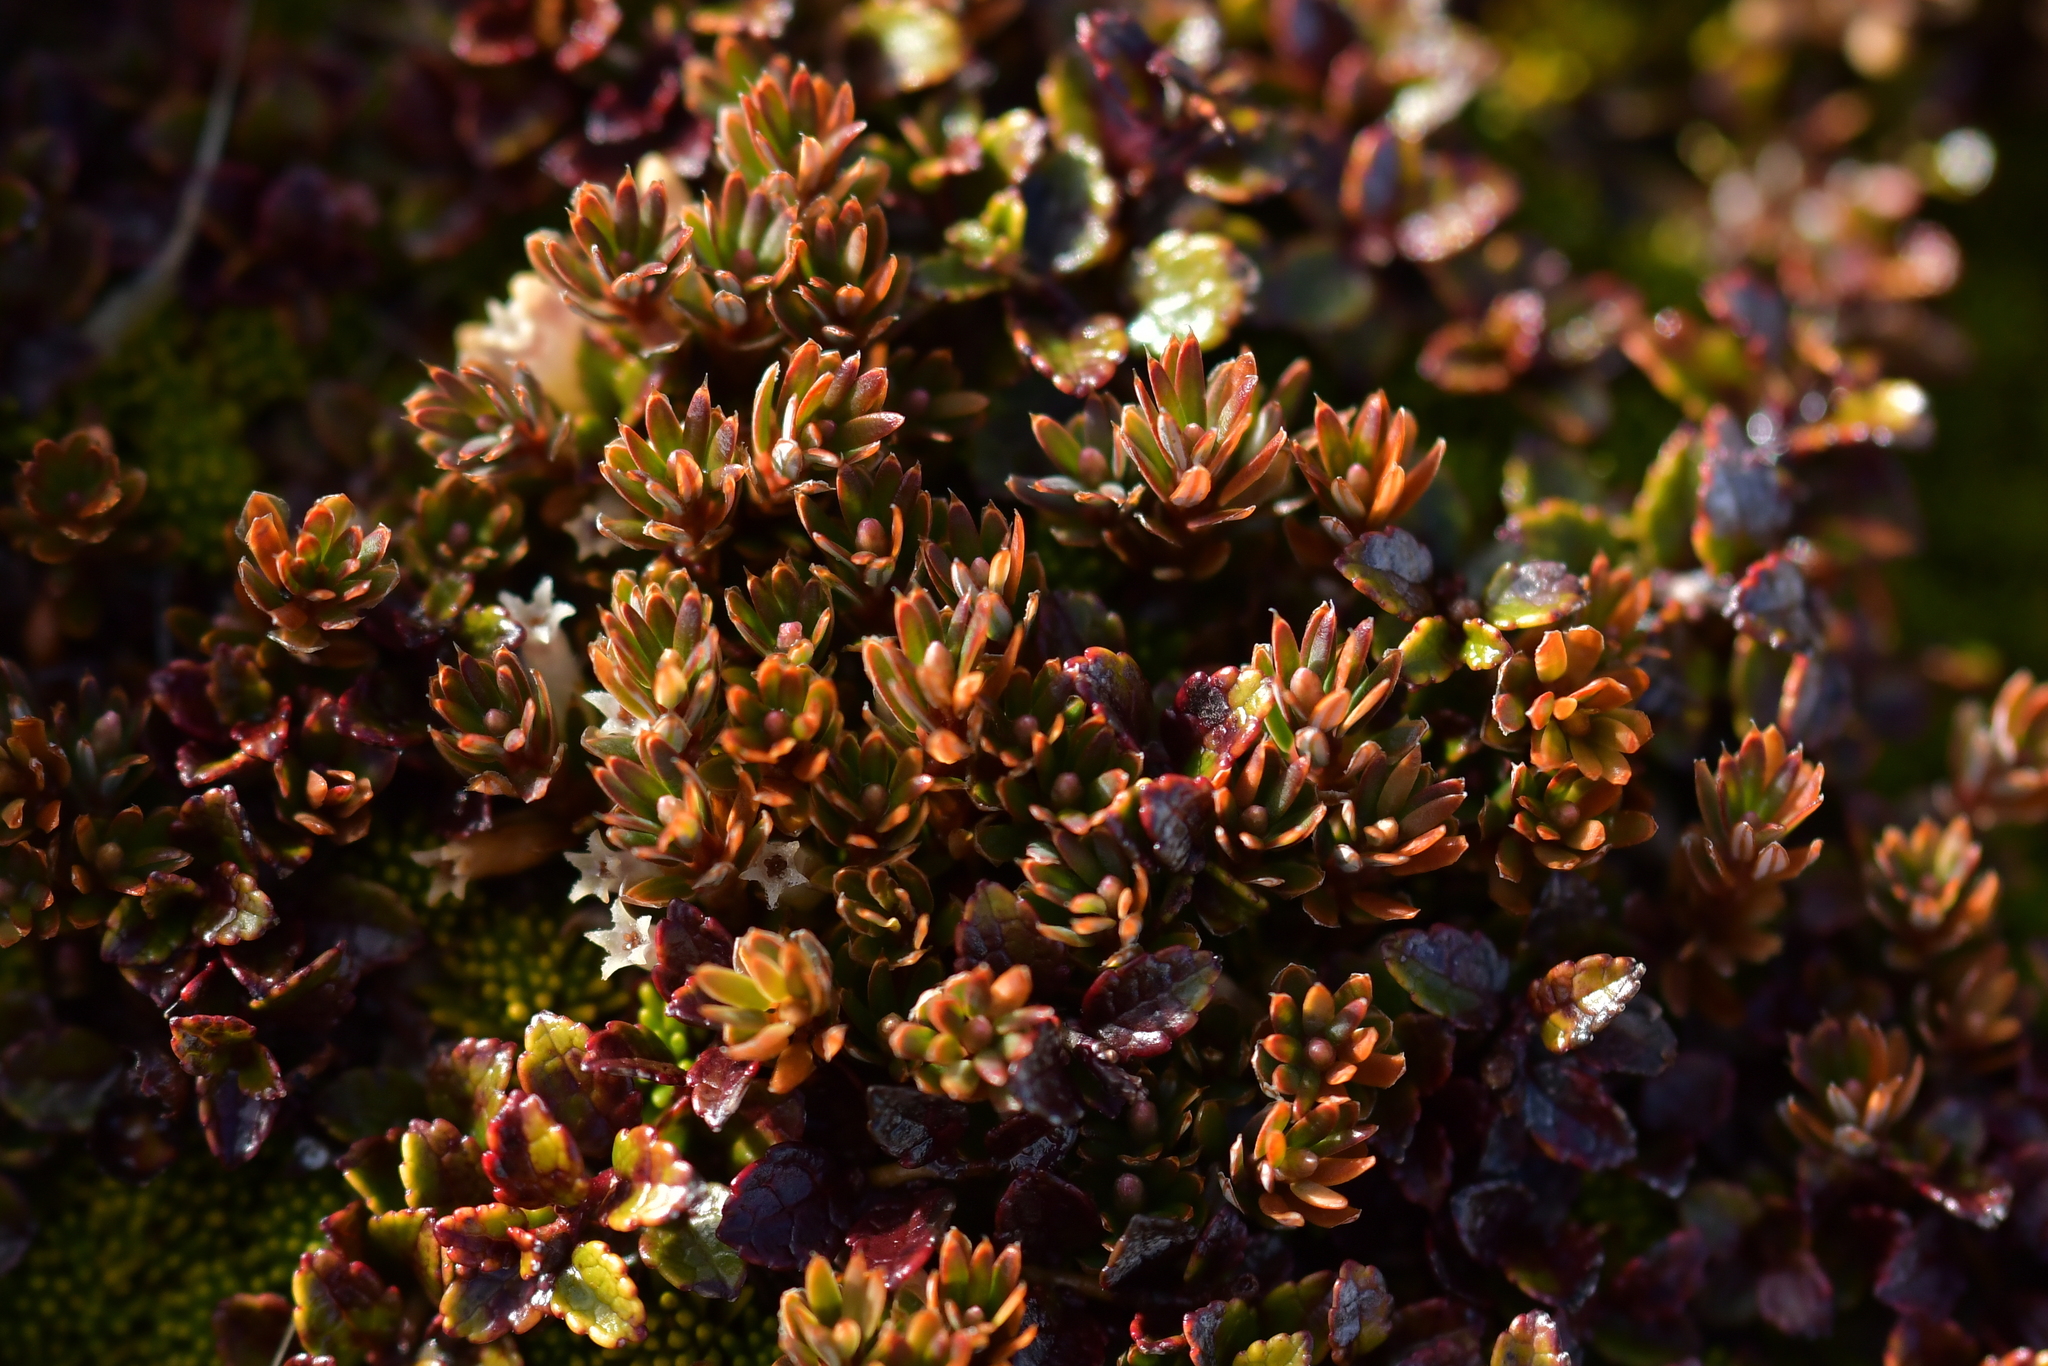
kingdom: Plantae
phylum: Tracheophyta
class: Magnoliopsida
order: Ericales
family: Ericaceae
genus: Montitega
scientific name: Montitega dealbata
